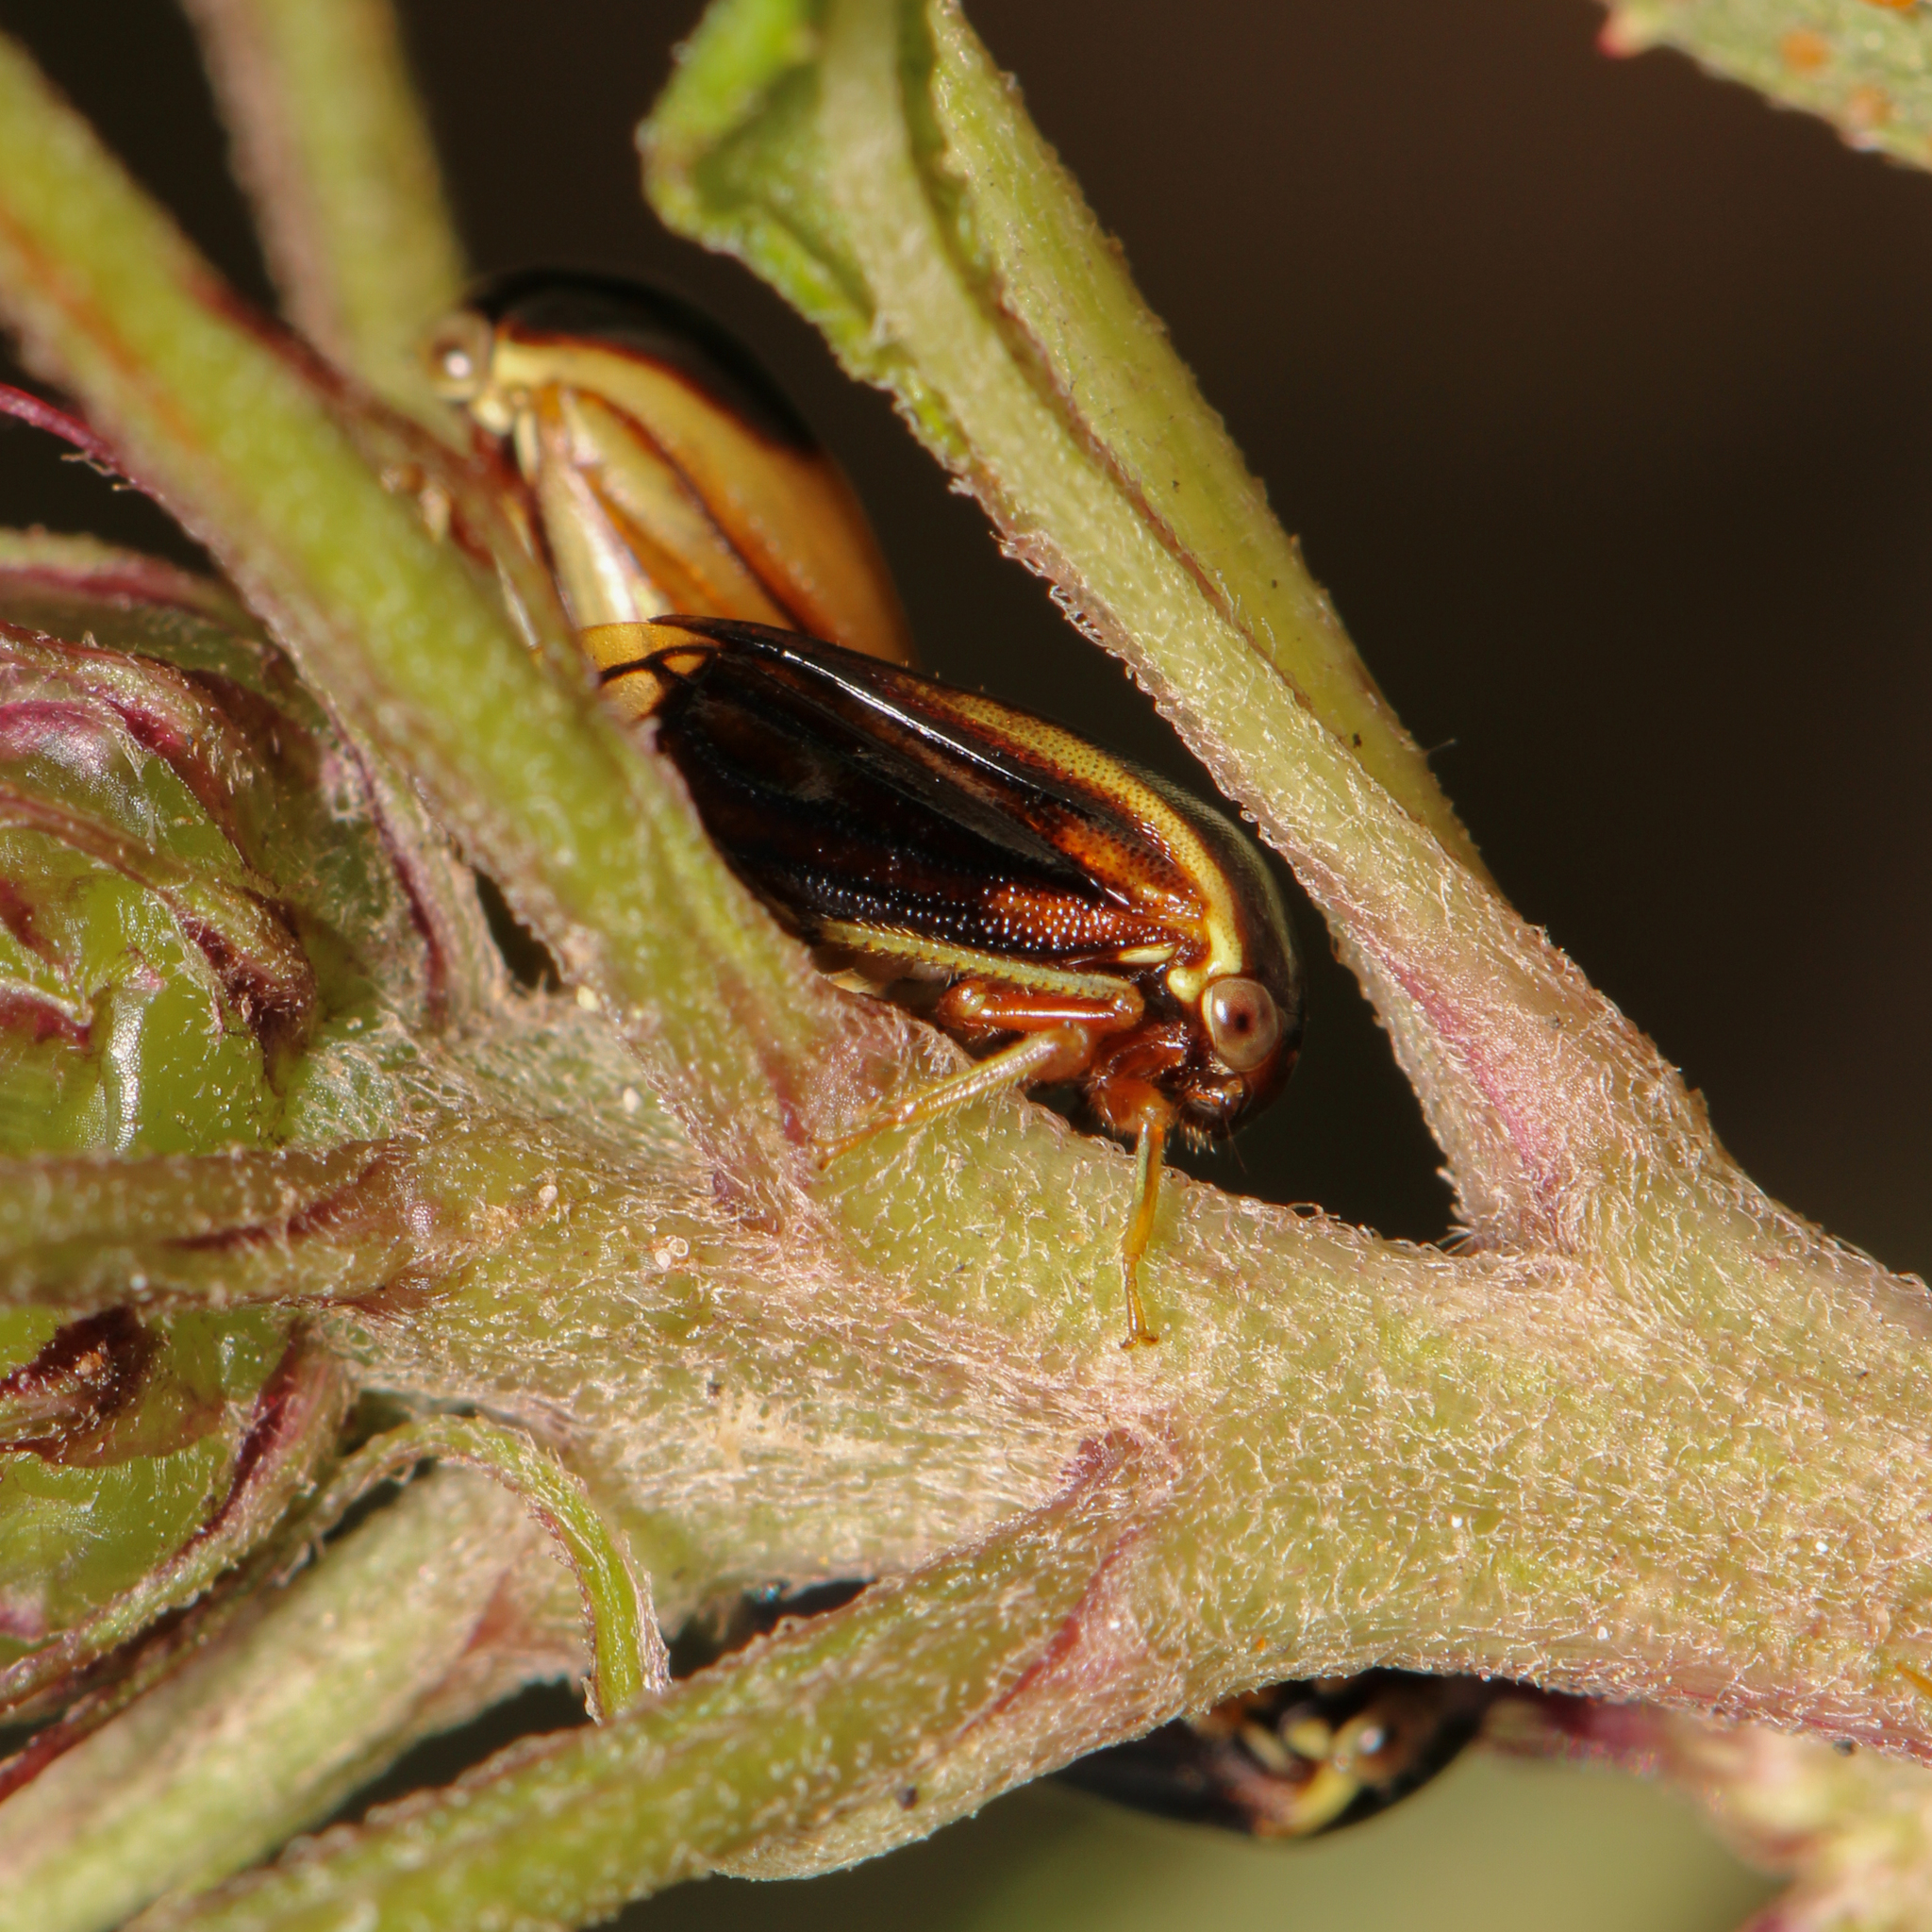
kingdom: Animalia
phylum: Arthropoda
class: Insecta
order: Hemiptera
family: Membracidae
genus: Acutalis
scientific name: Acutalis tartarea
